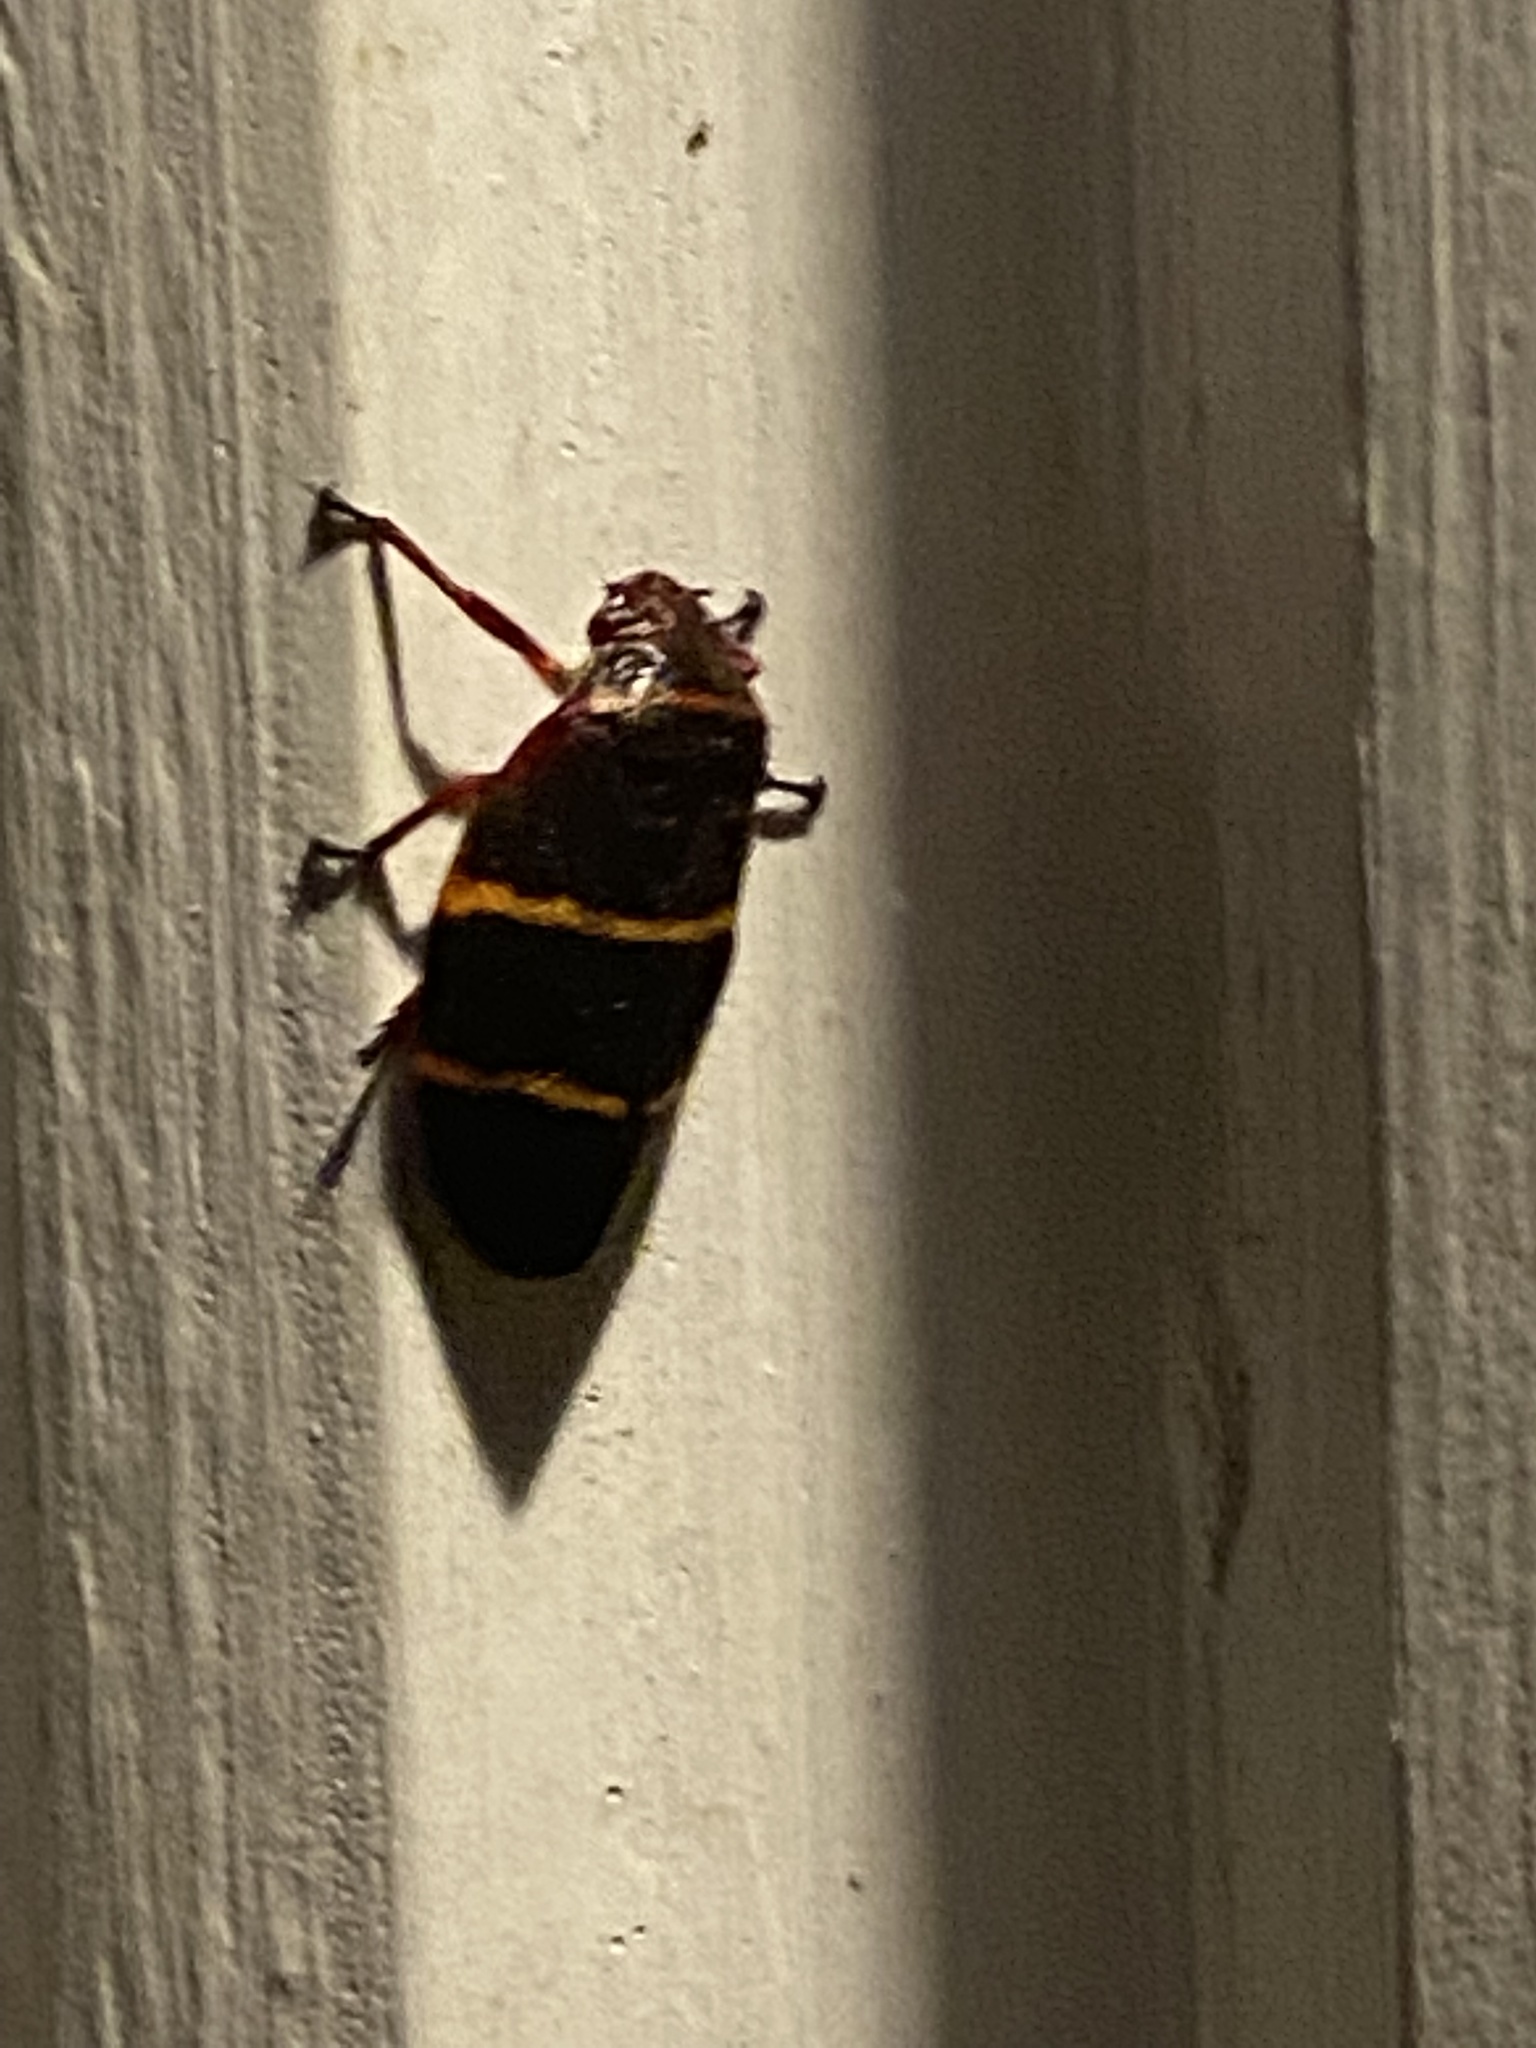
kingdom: Animalia
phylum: Arthropoda
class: Insecta
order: Hemiptera
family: Cercopidae
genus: Prosapia
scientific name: Prosapia bicincta
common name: Twolined spittlebug
